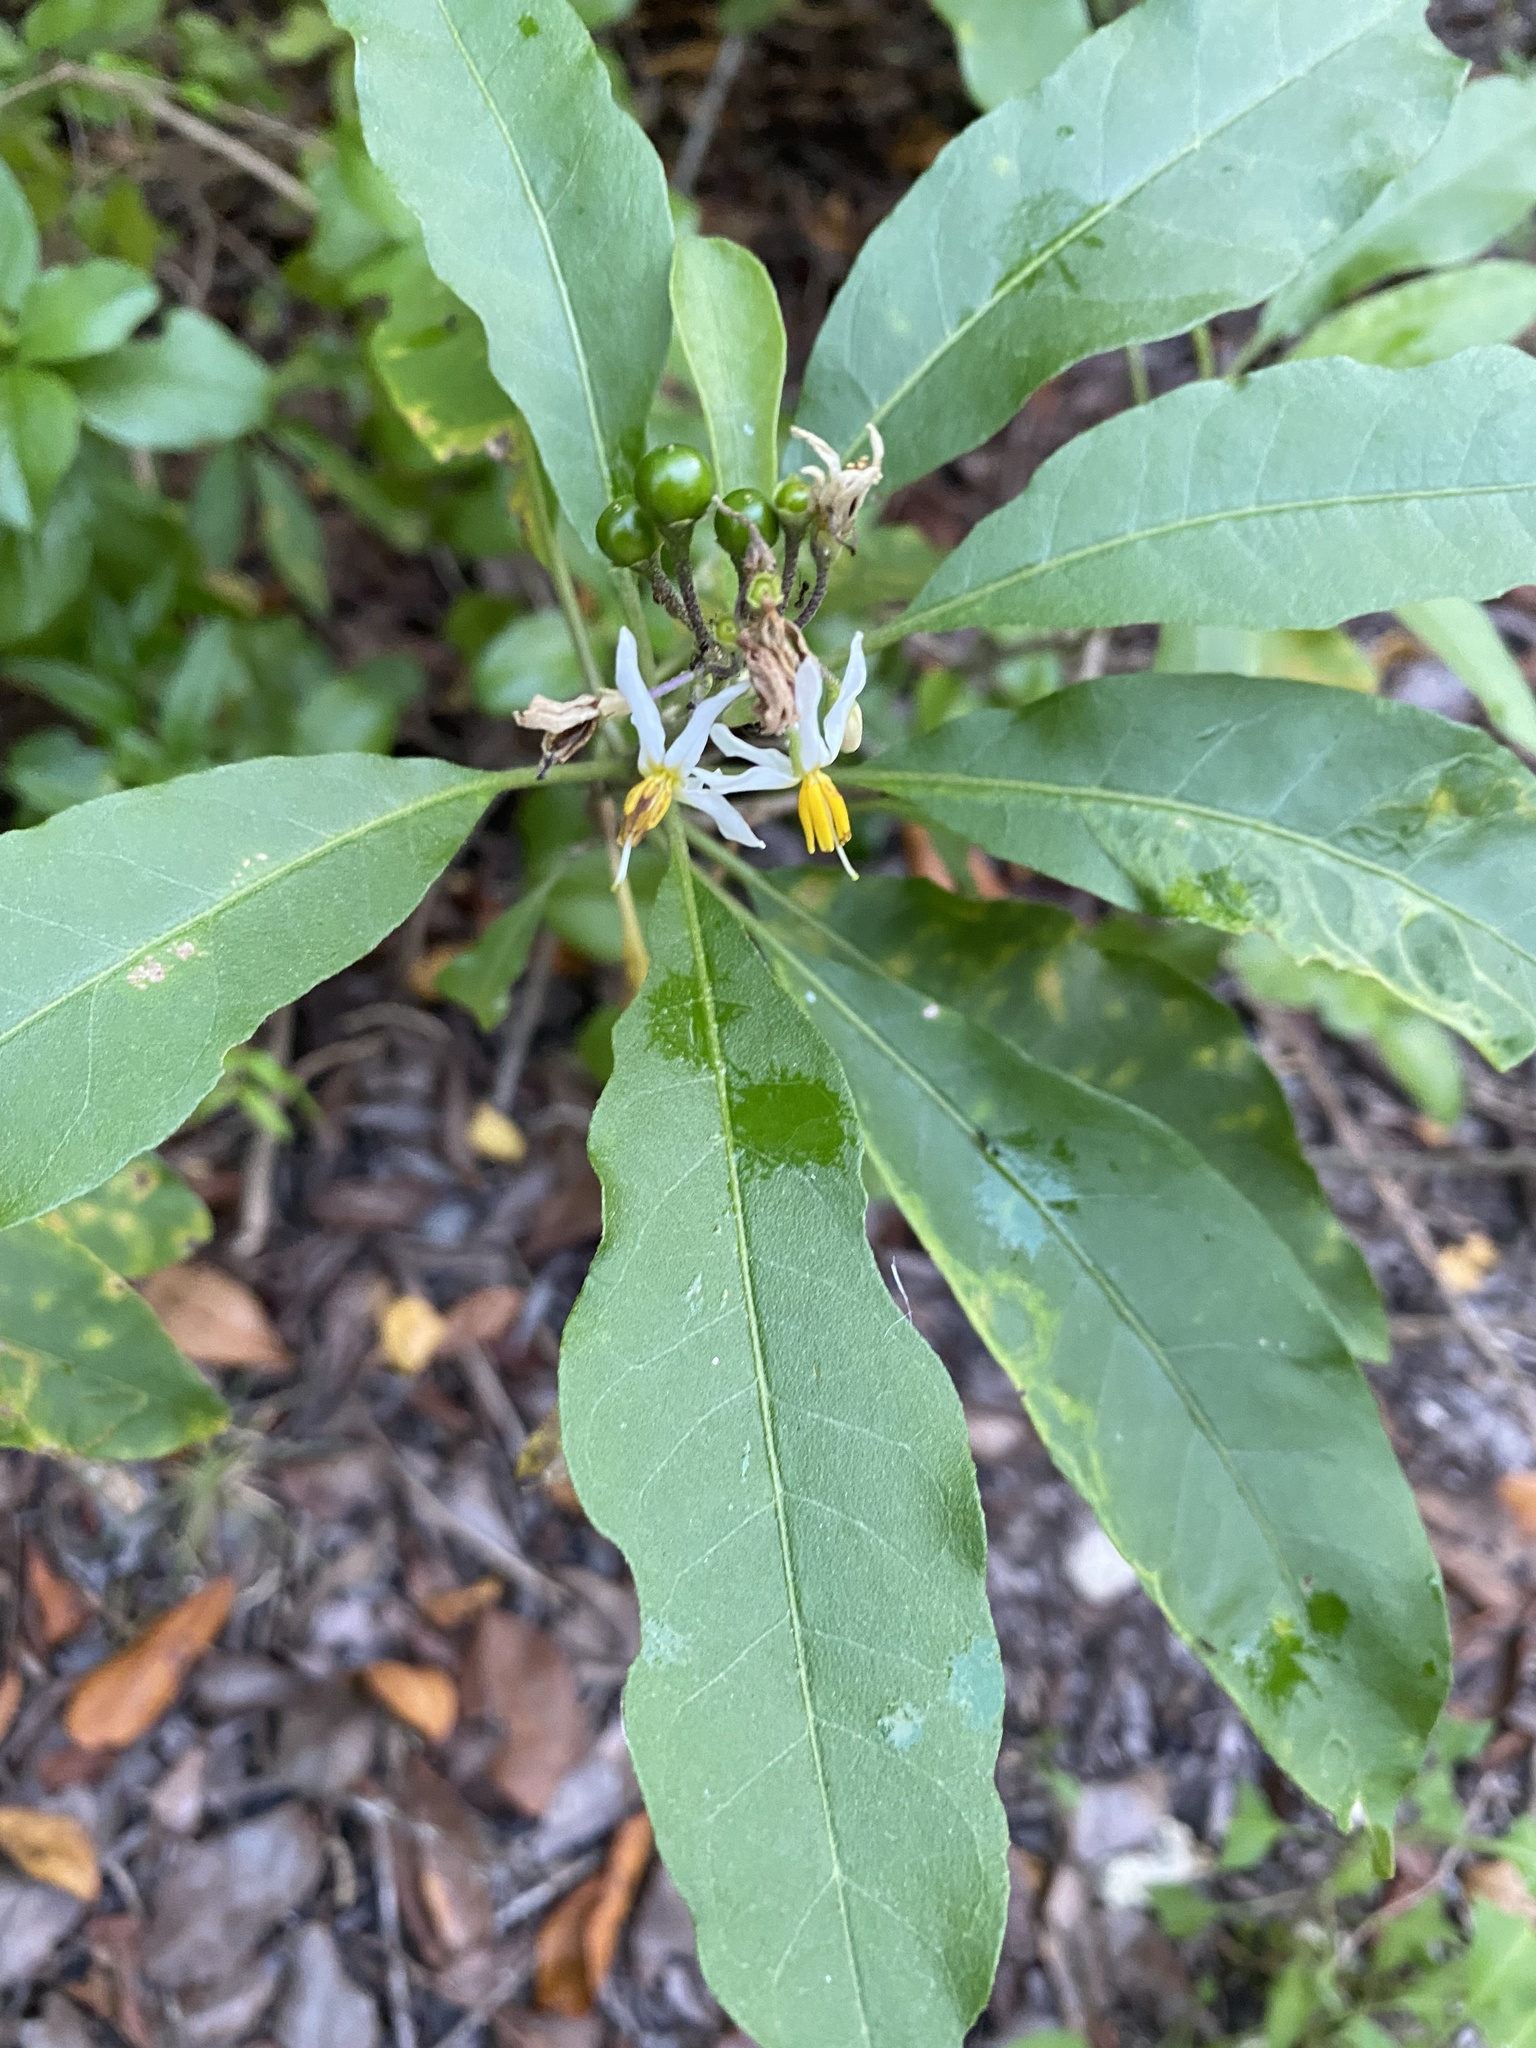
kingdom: Plantae
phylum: Tracheophyta
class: Magnoliopsida
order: Solanales
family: Solanaceae
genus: Solanum
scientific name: Solanum donianum
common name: Mullein nightshade
